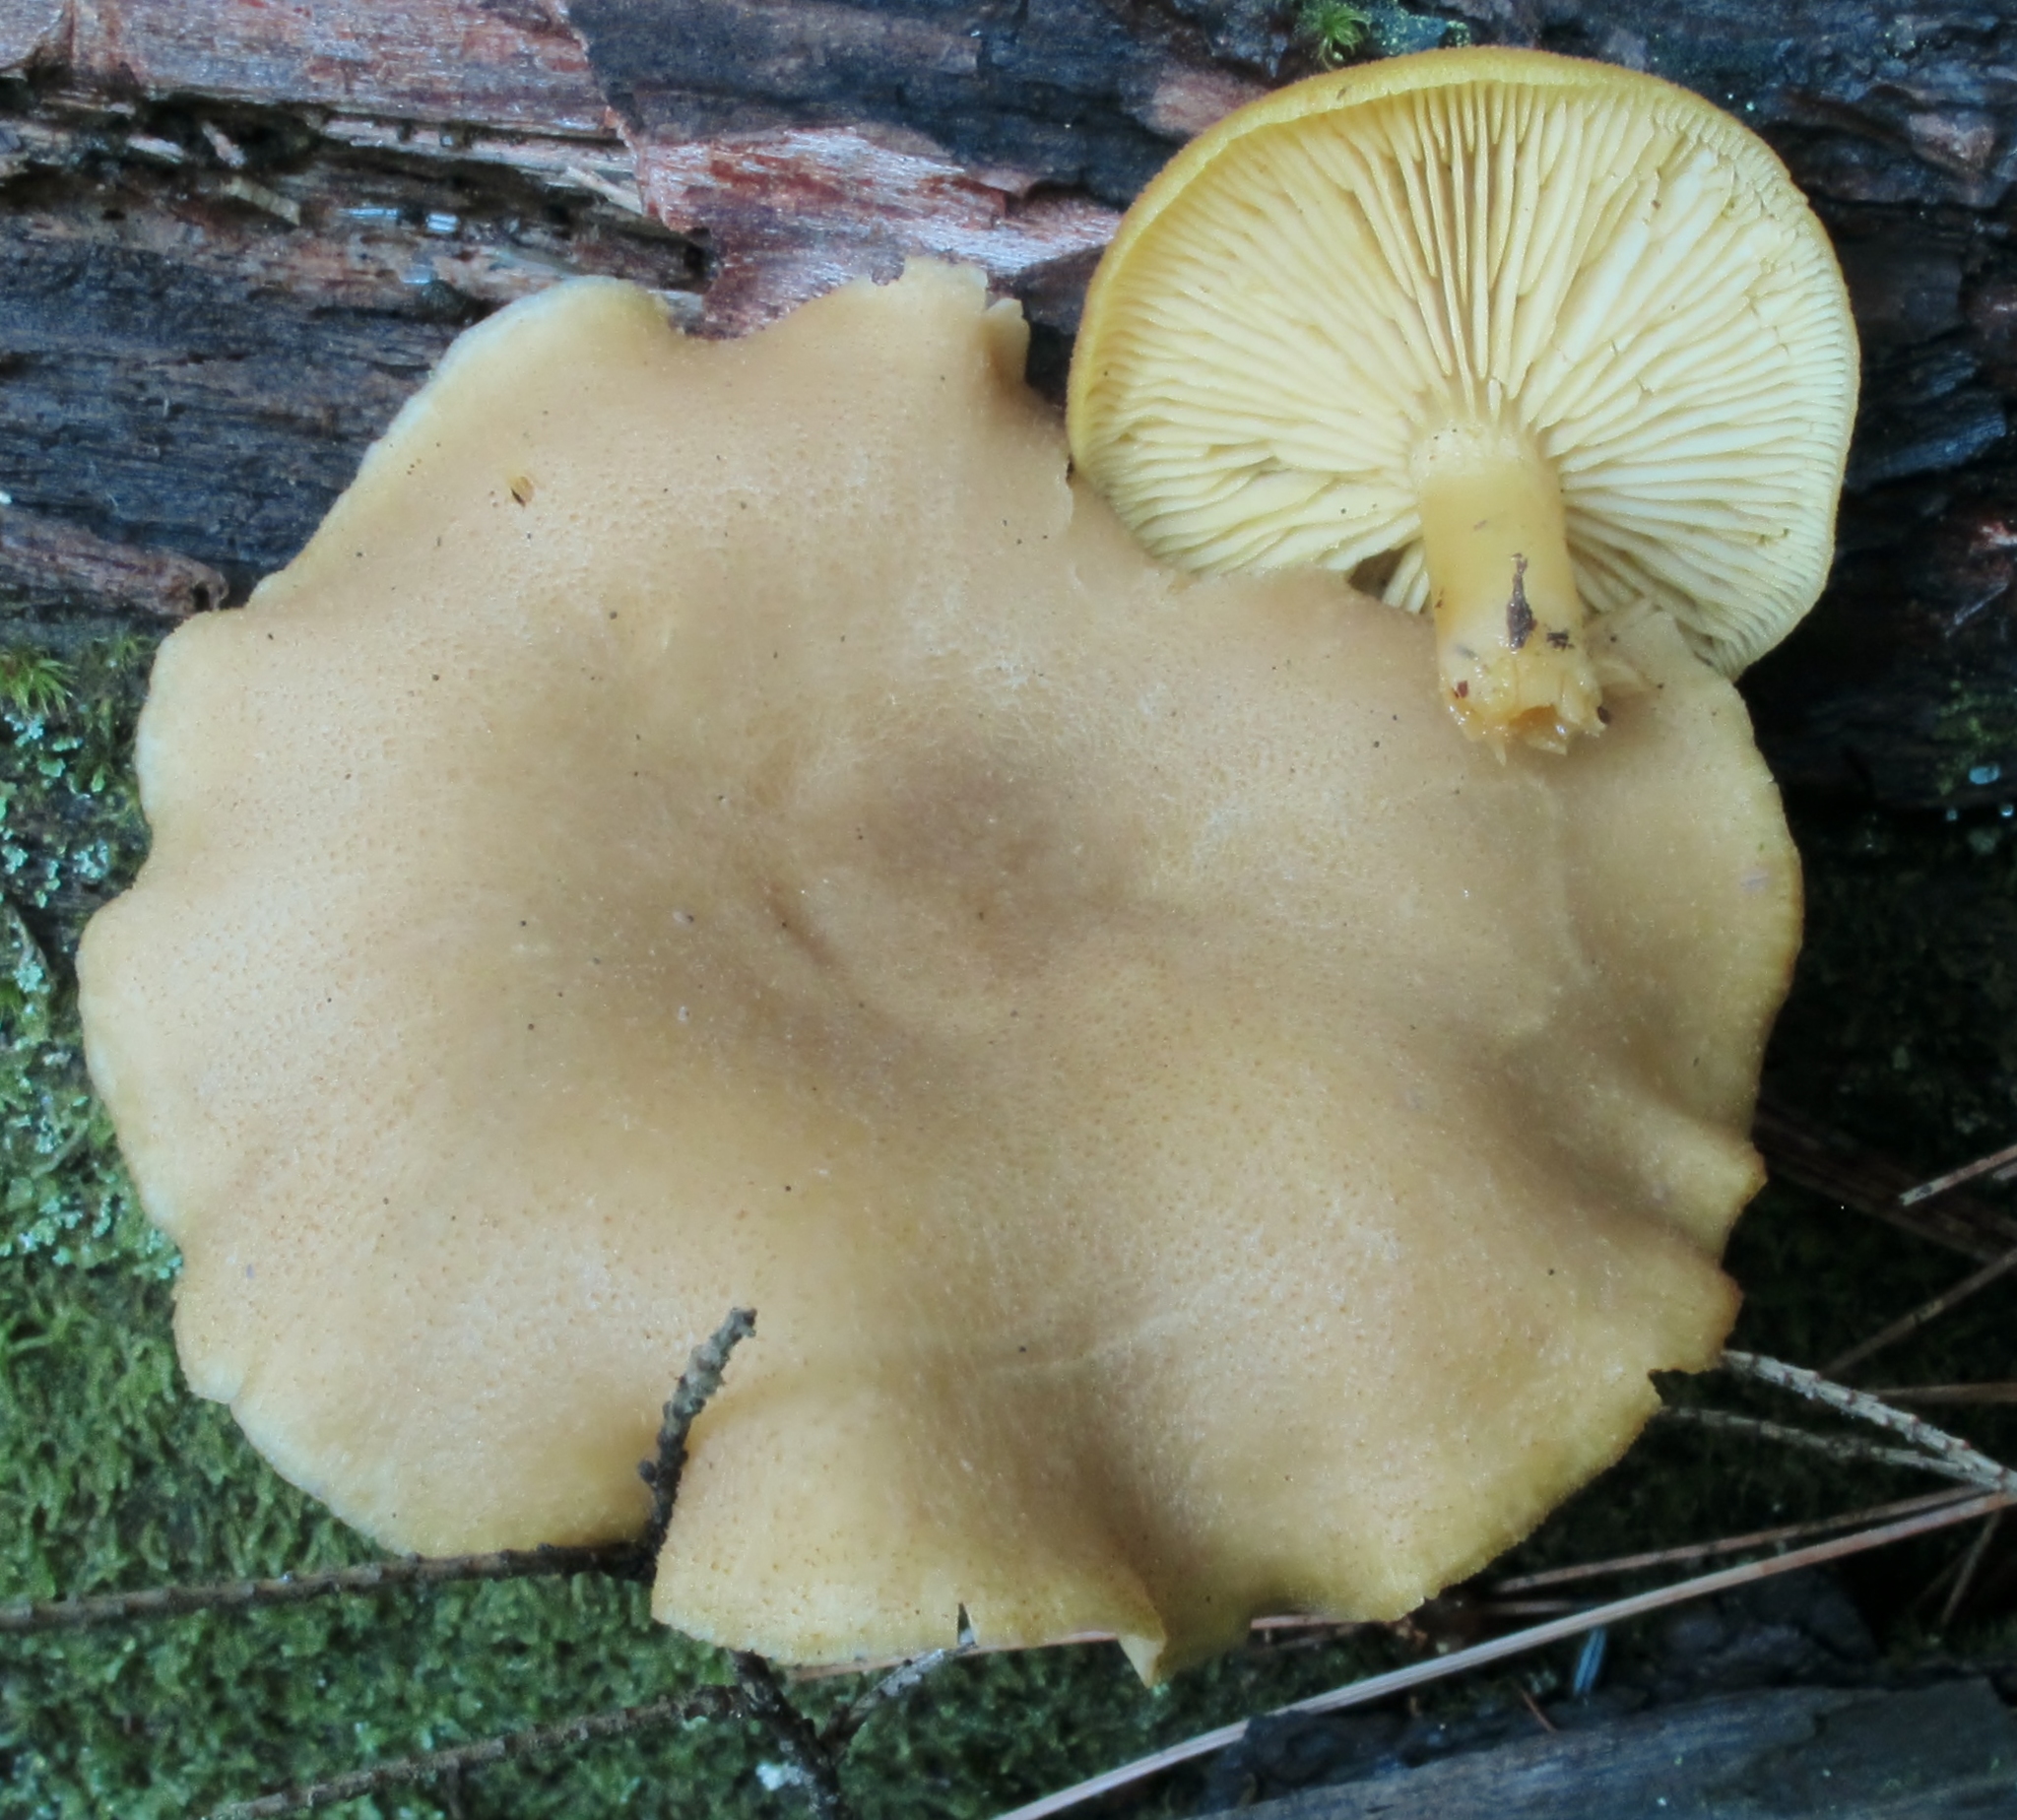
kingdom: Fungi
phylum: Basidiomycota
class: Agaricomycetes
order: Agaricales
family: Tricholomataceae
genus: Tricholomopsis
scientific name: Tricholomopsis sulfureoides
